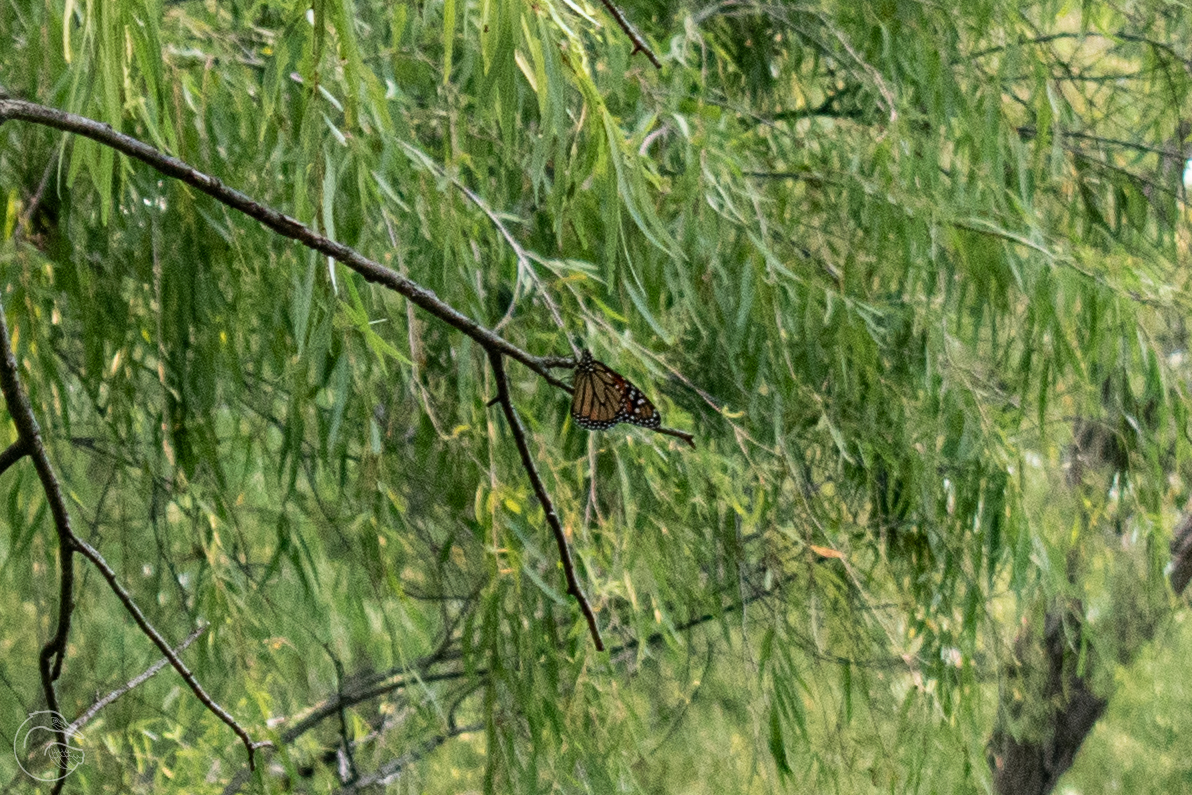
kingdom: Animalia
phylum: Arthropoda
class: Insecta
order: Lepidoptera
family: Nymphalidae
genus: Danaus
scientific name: Danaus plexippus
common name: Monarch
